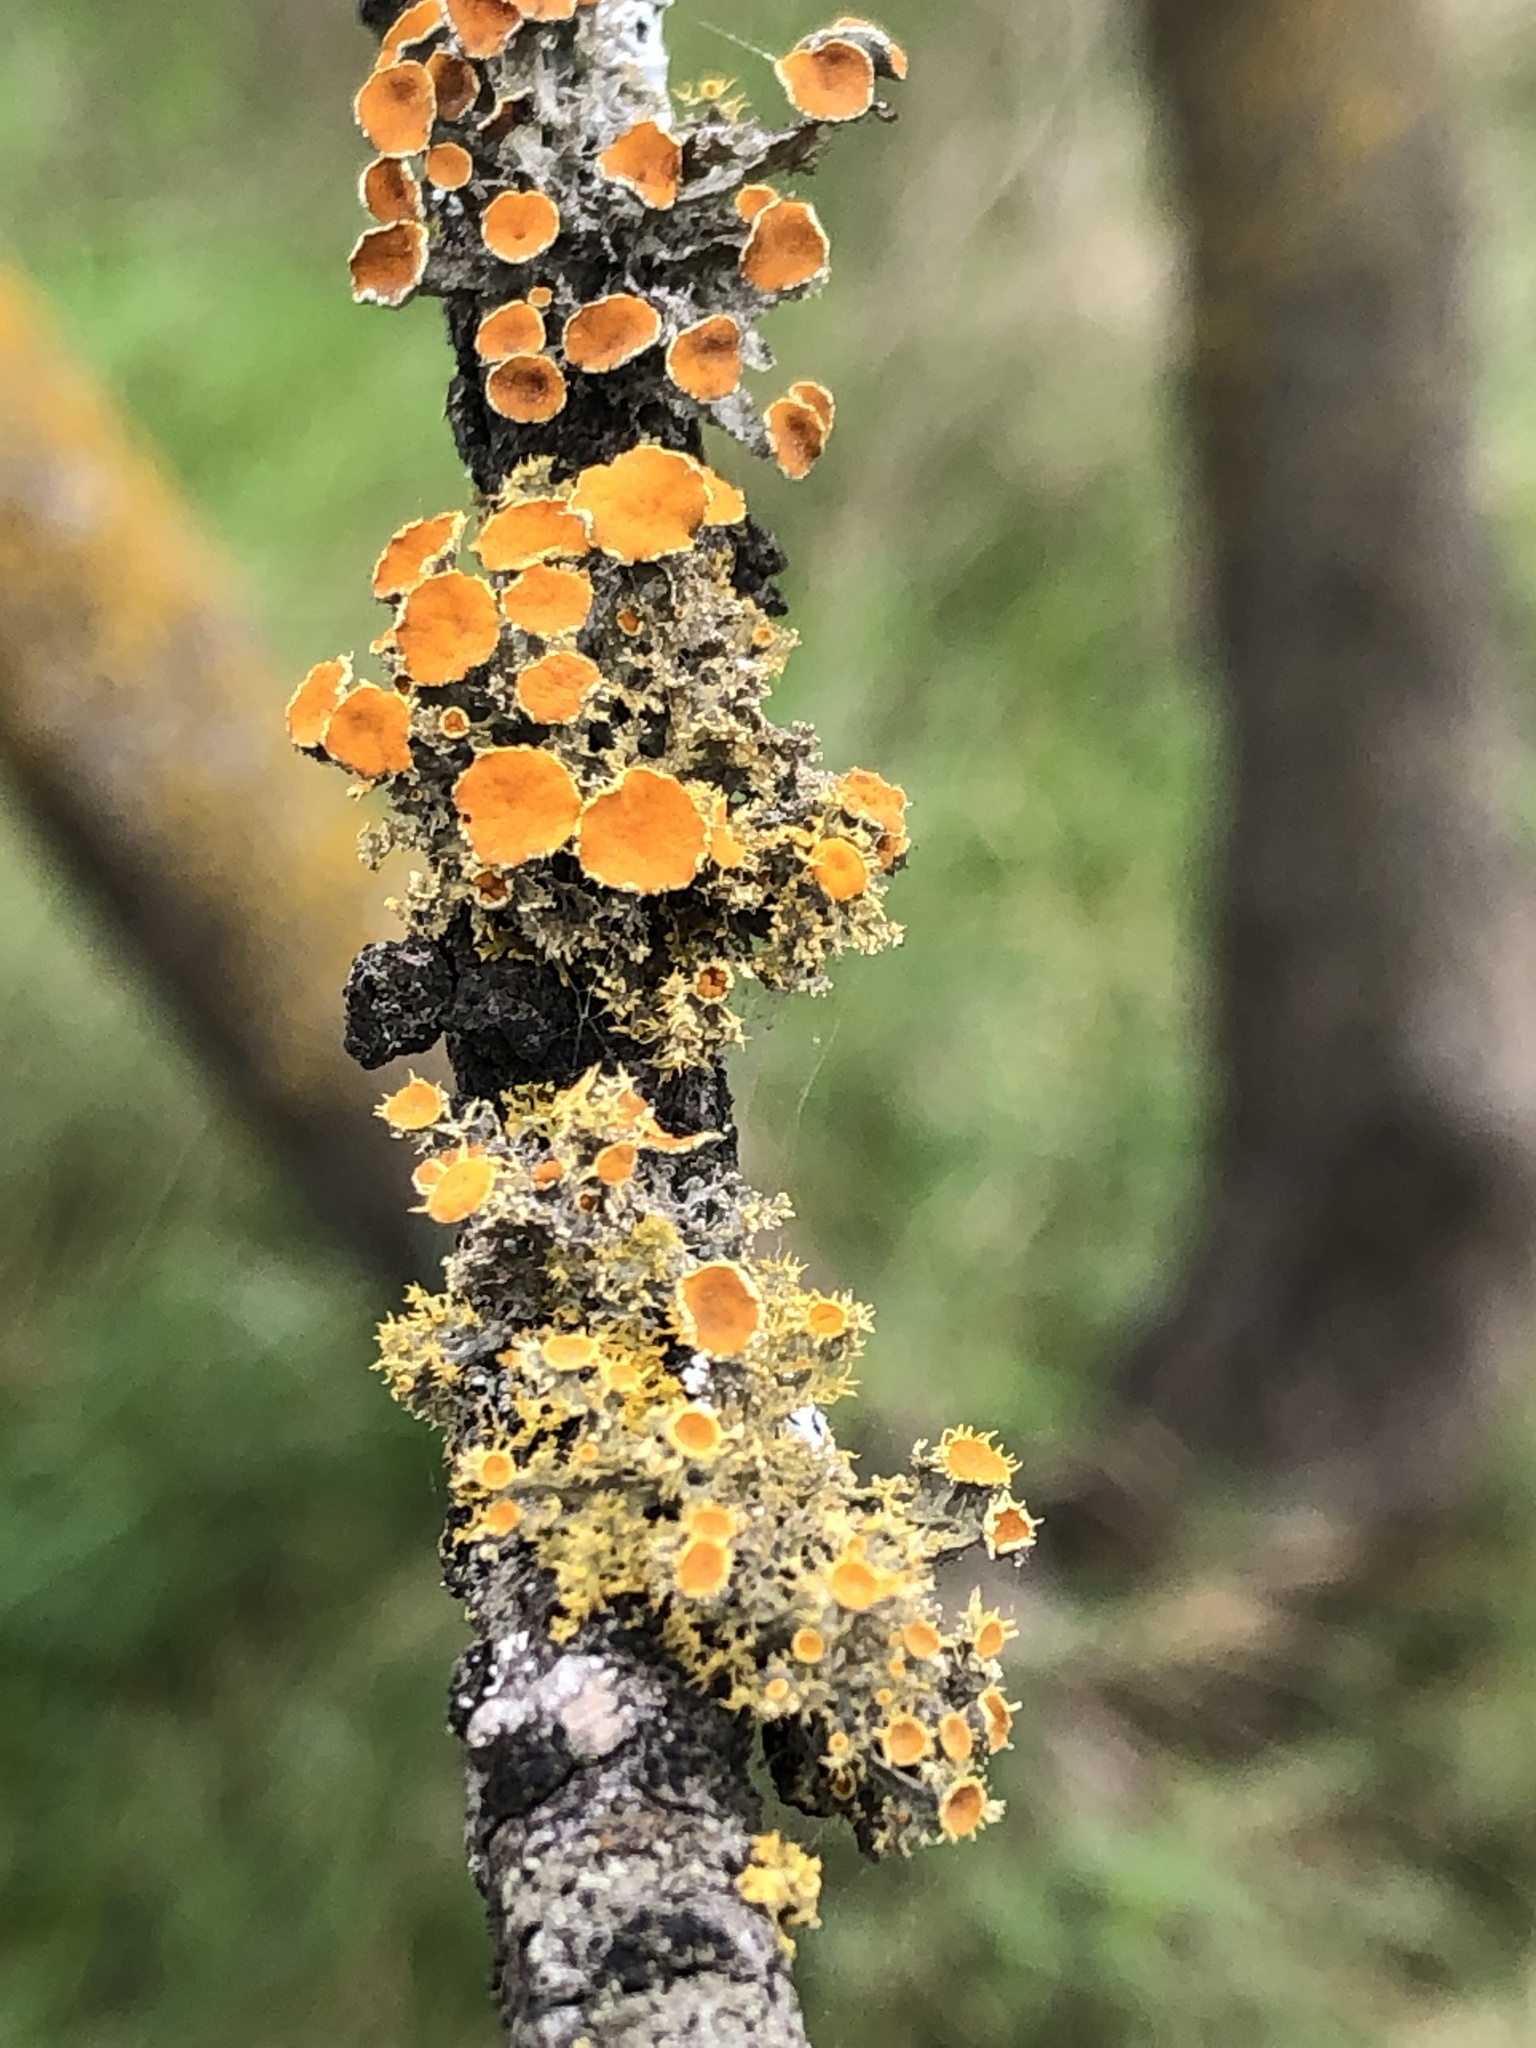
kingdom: Fungi
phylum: Ascomycota
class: Lecanoromycetes
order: Teloschistales
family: Teloschistaceae
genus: Niorma
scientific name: Niorma chrysophthalma
